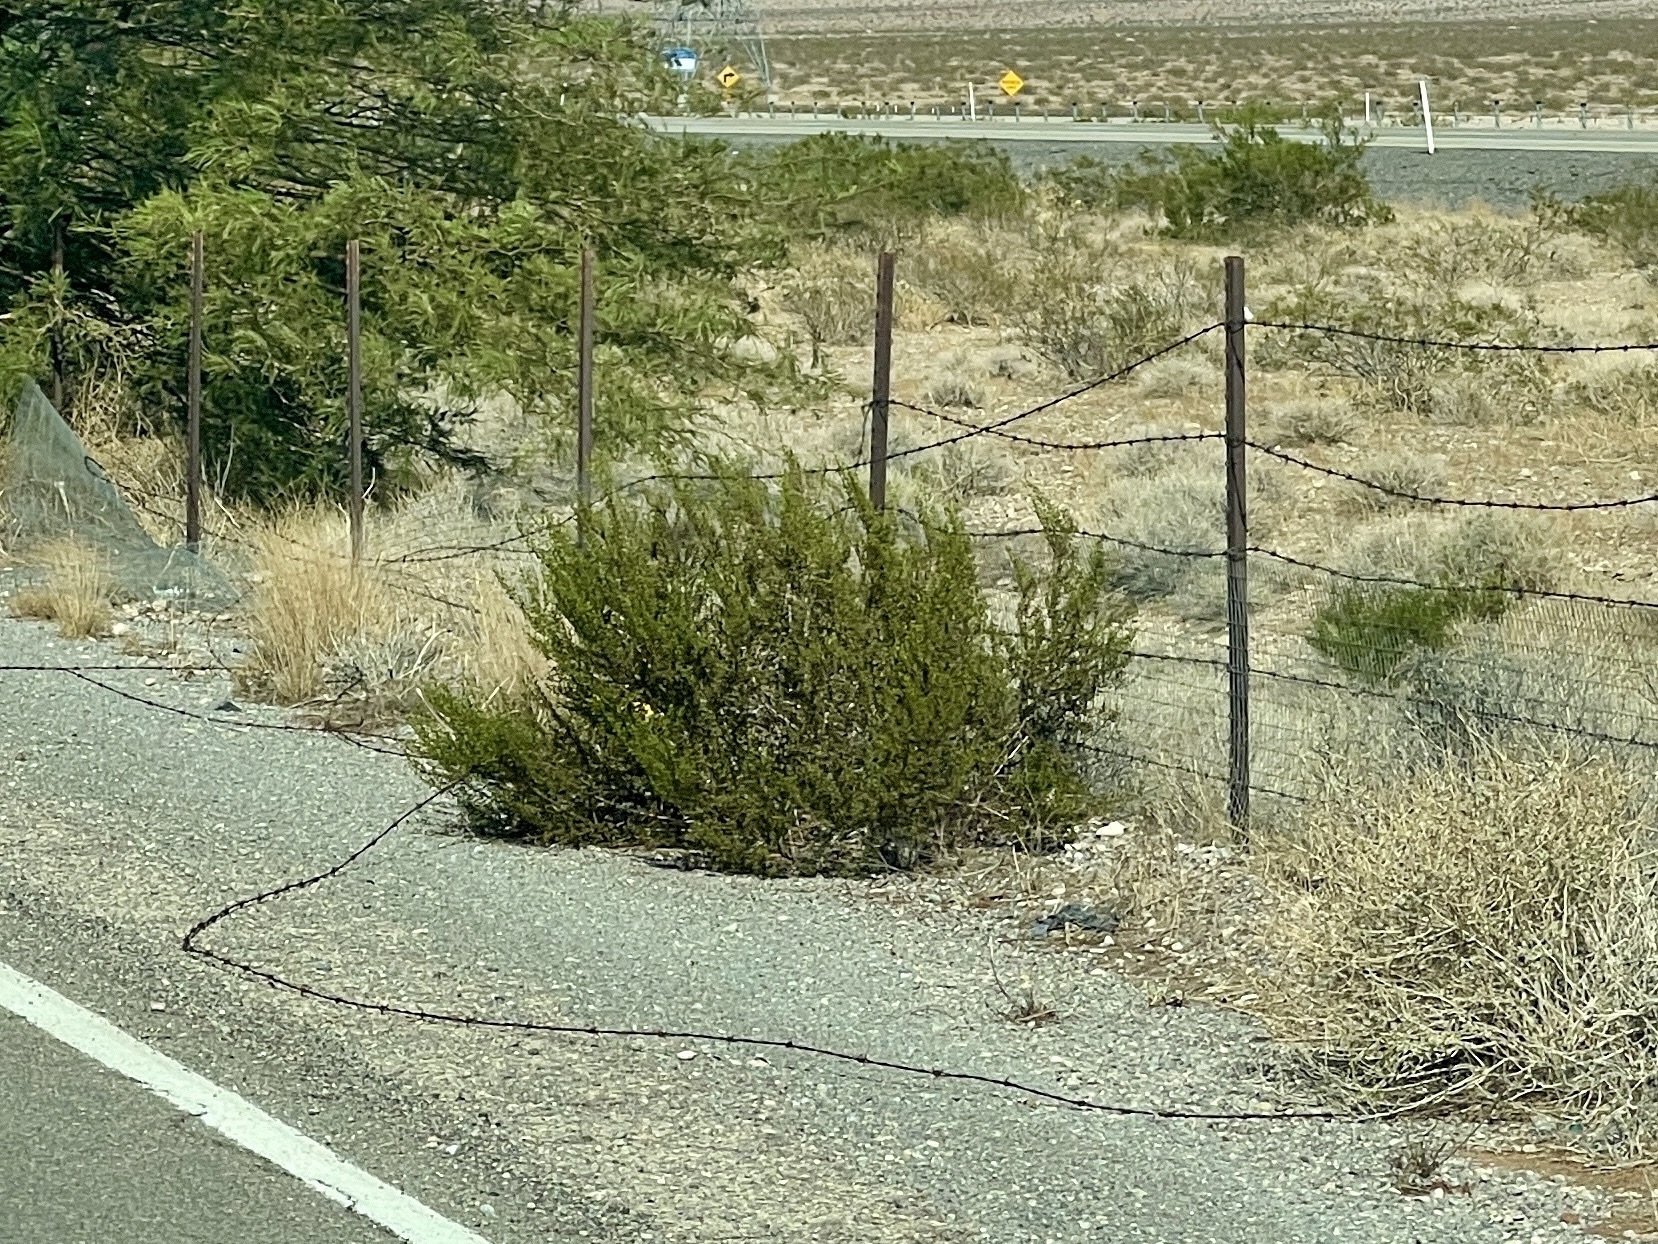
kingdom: Plantae
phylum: Tracheophyta
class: Magnoliopsida
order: Zygophyllales
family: Zygophyllaceae
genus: Larrea
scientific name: Larrea tridentata
